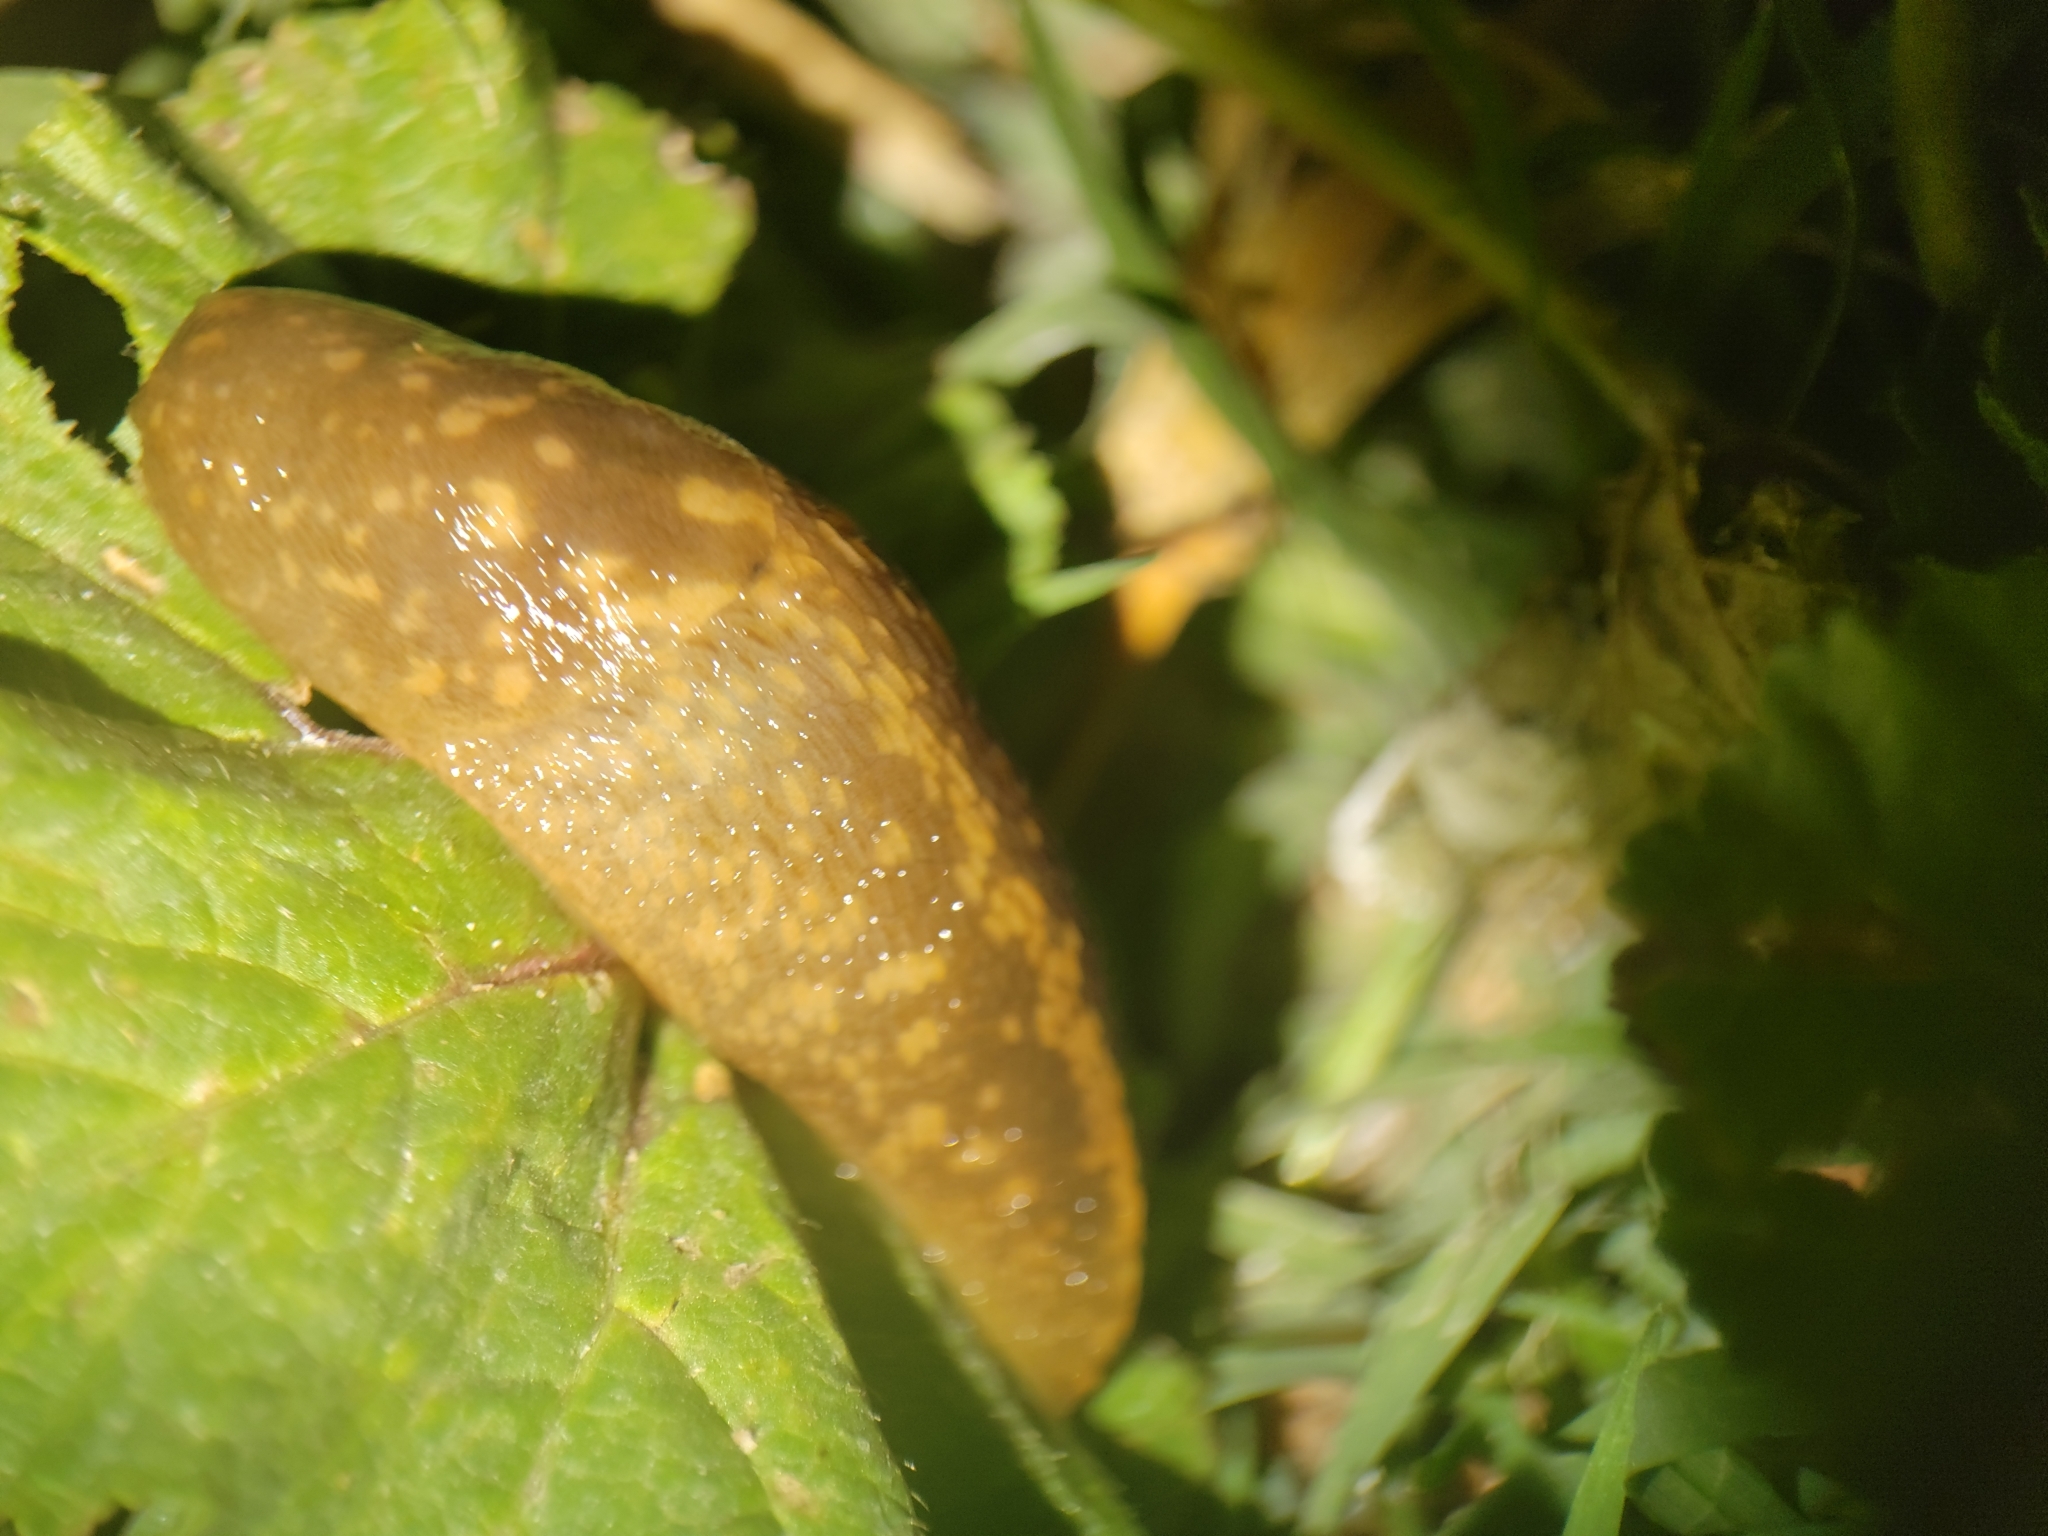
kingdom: Animalia
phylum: Mollusca
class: Gastropoda
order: Stylommatophora
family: Limacidae
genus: Limacus
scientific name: Limacus flavus
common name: Yellow gardenslug
